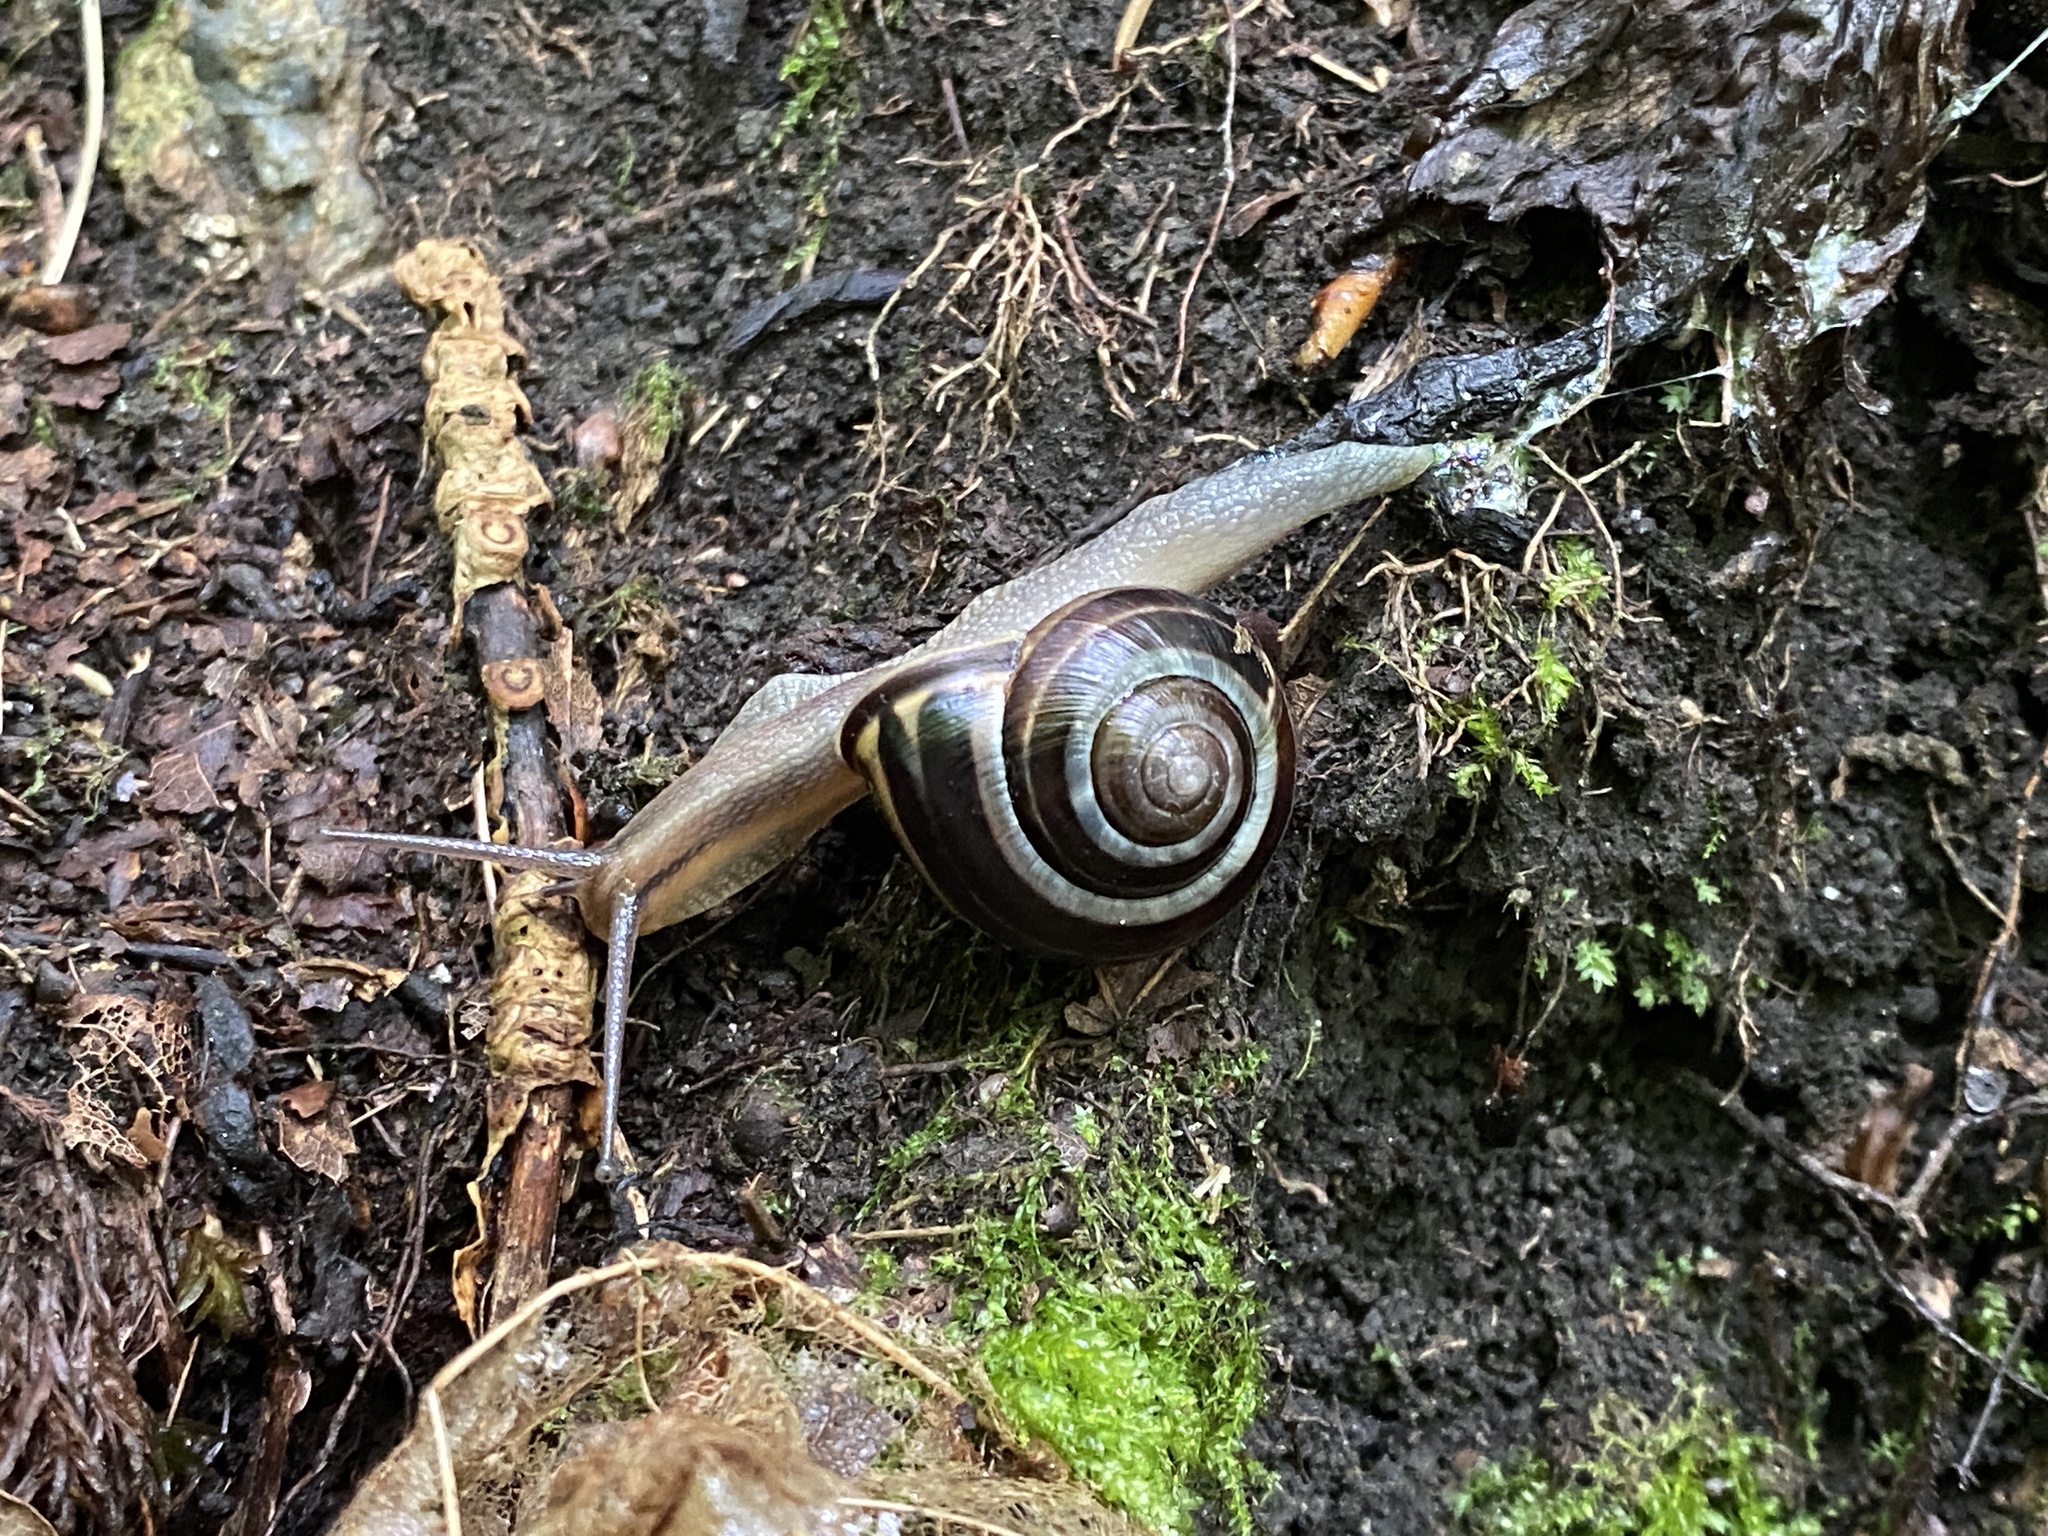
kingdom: Animalia
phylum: Mollusca
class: Gastropoda
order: Stylommatophora
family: Helicidae
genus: Cepaea
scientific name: Cepaea nemoralis
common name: Grovesnail
